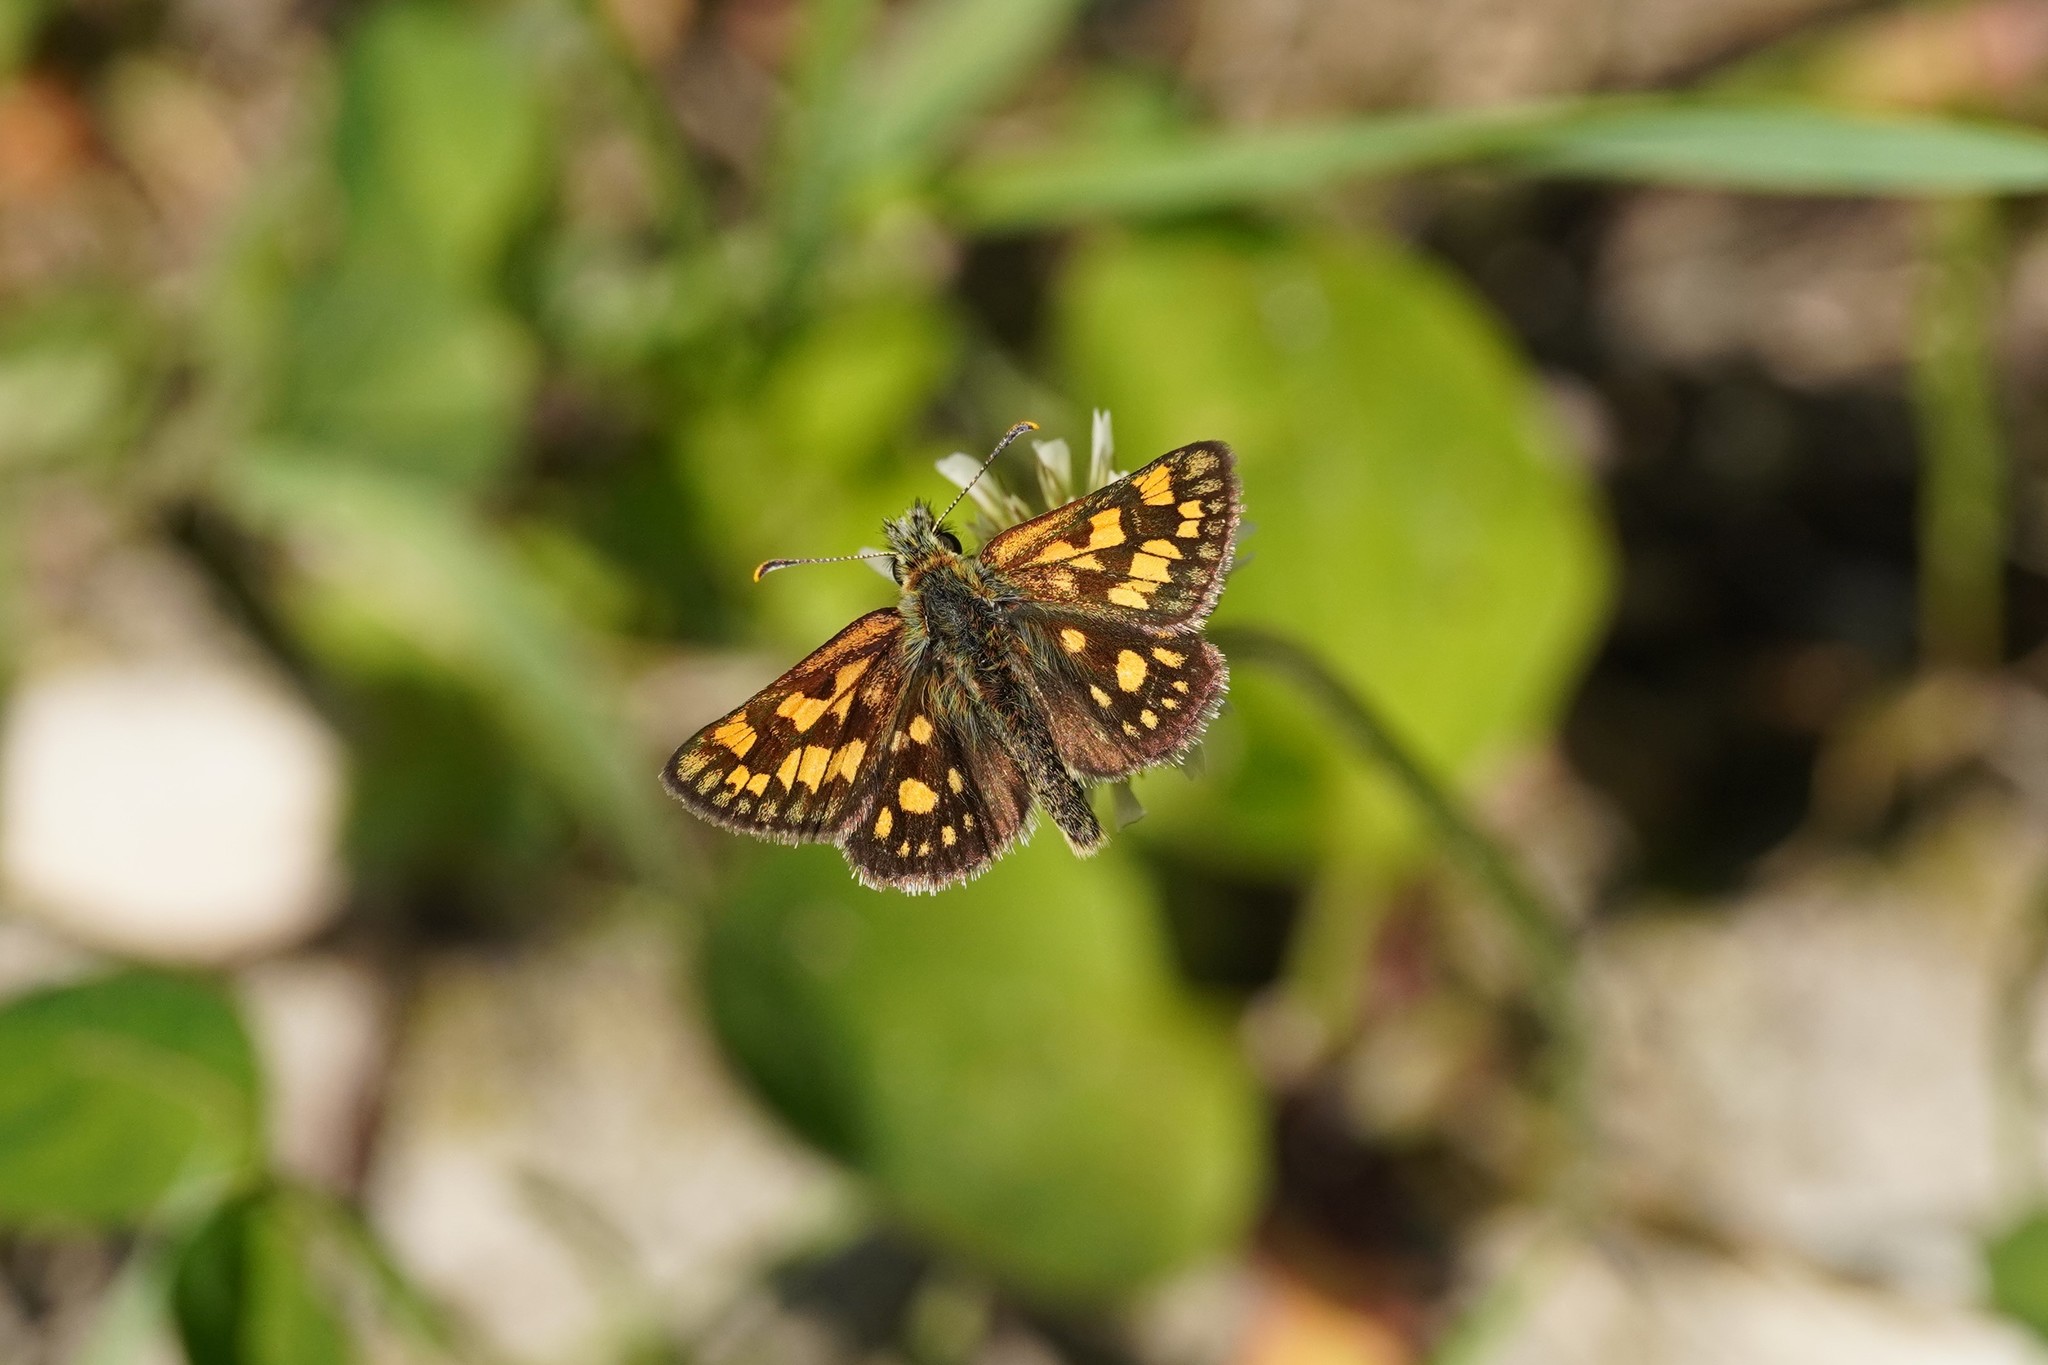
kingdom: Animalia
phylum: Arthropoda
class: Insecta
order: Lepidoptera
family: Hesperiidae
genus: Carterocephalus
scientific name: Carterocephalus palaemon
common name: Chequered skipper
